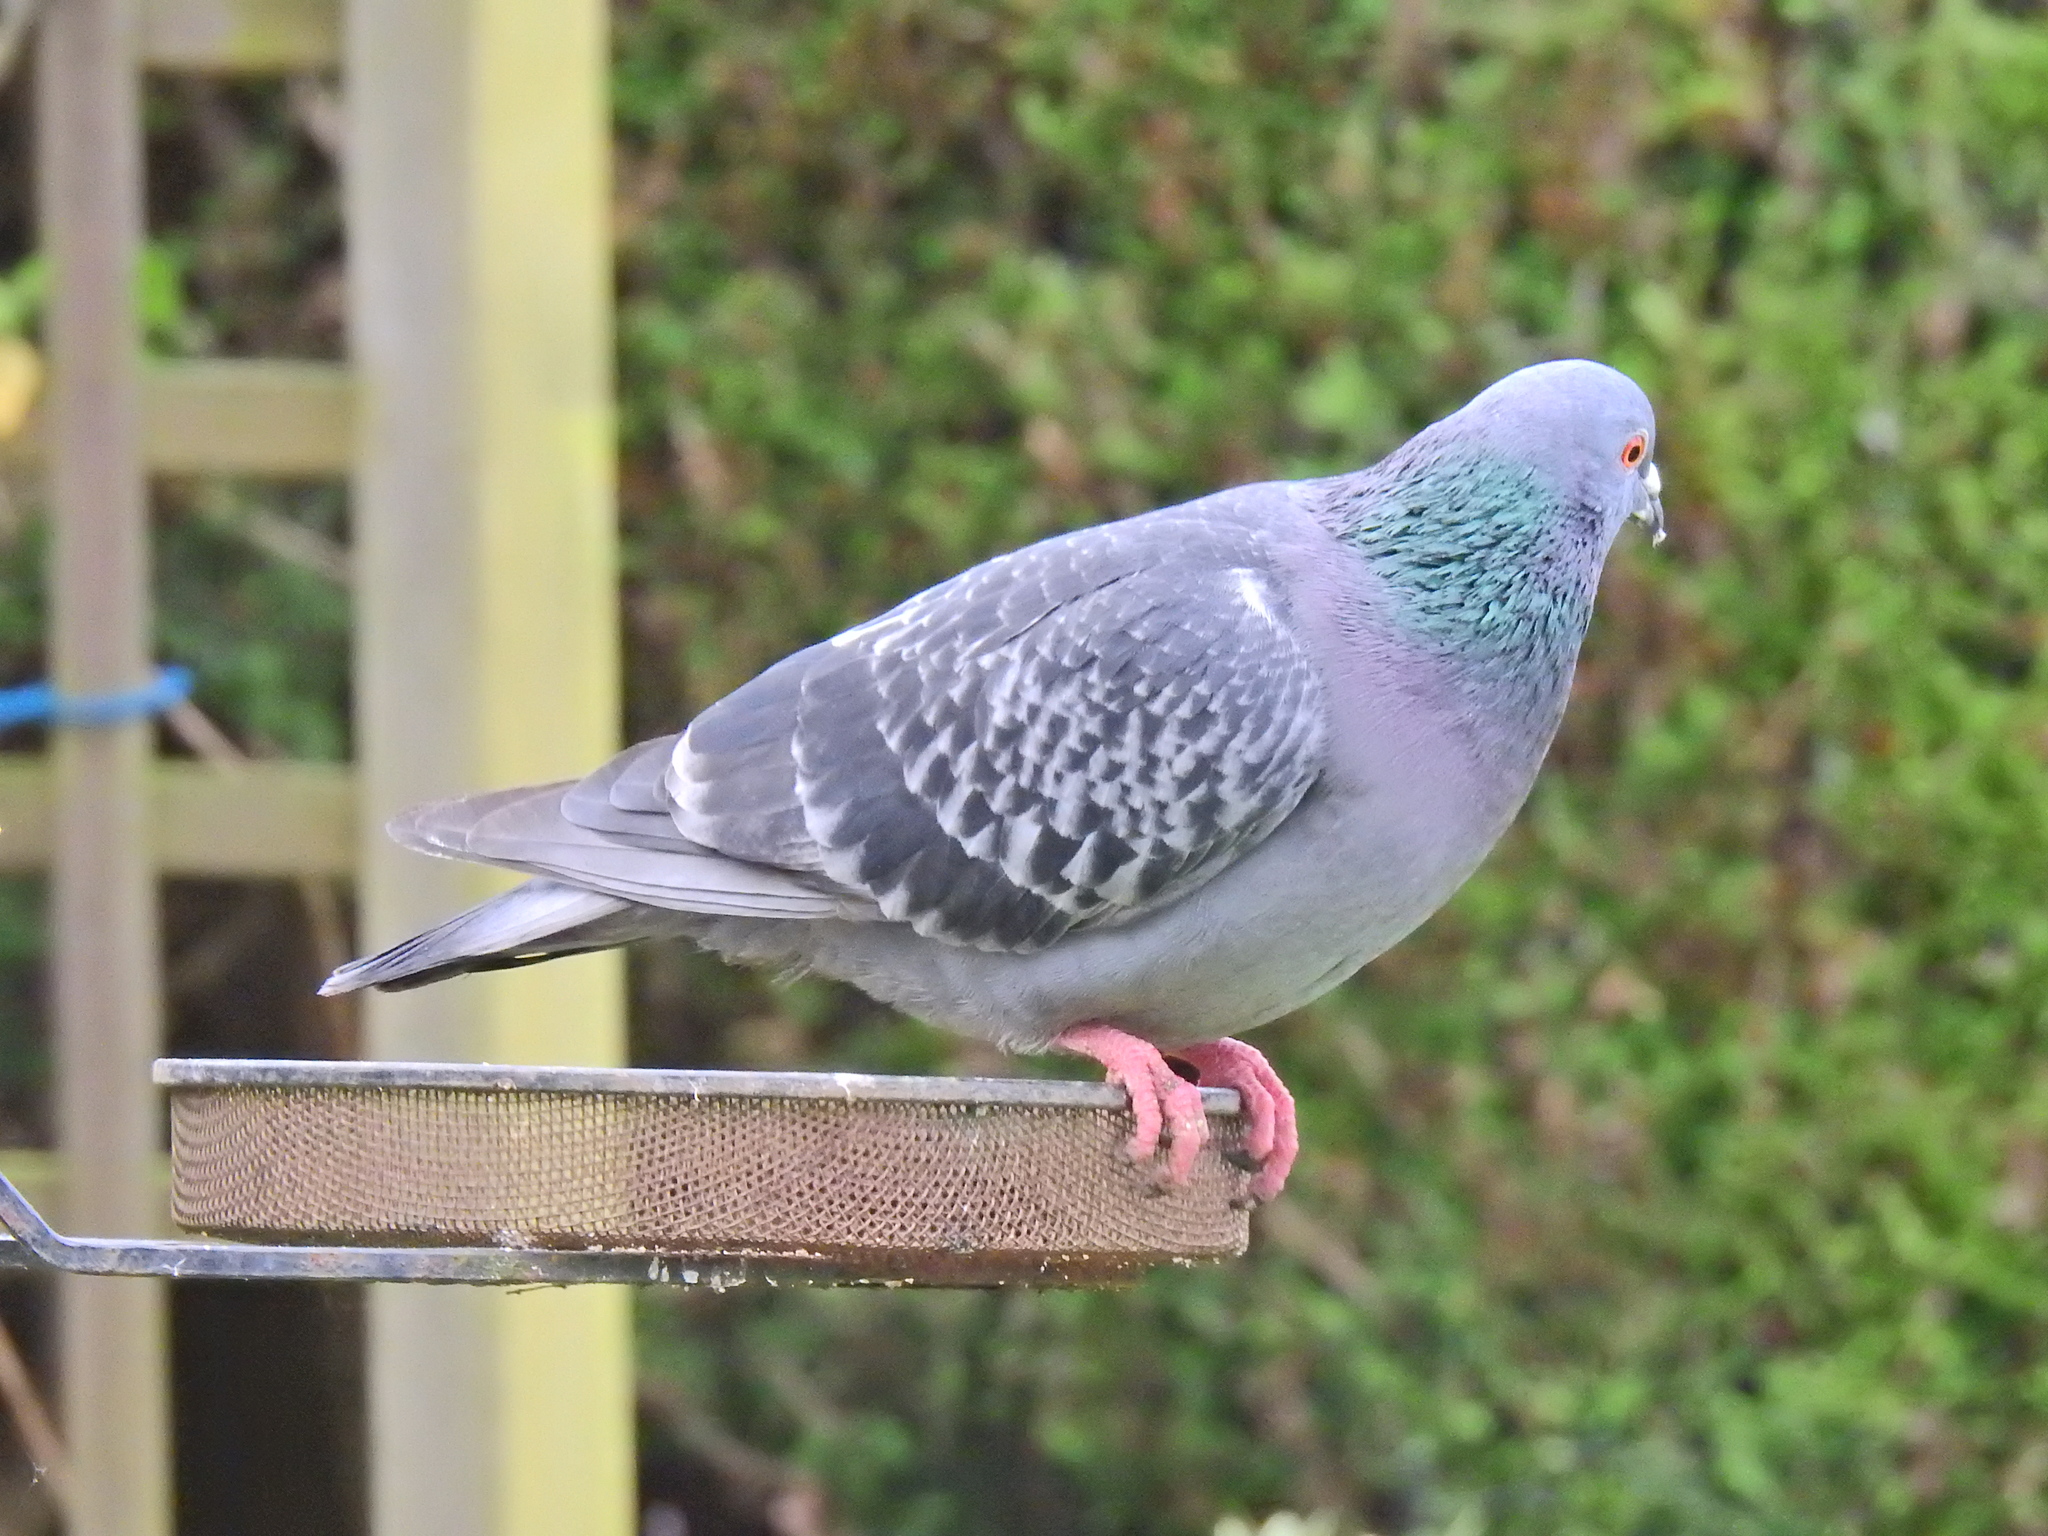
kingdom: Animalia
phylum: Chordata
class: Aves
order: Columbiformes
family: Columbidae
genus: Columba
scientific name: Columba livia
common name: Rock pigeon
